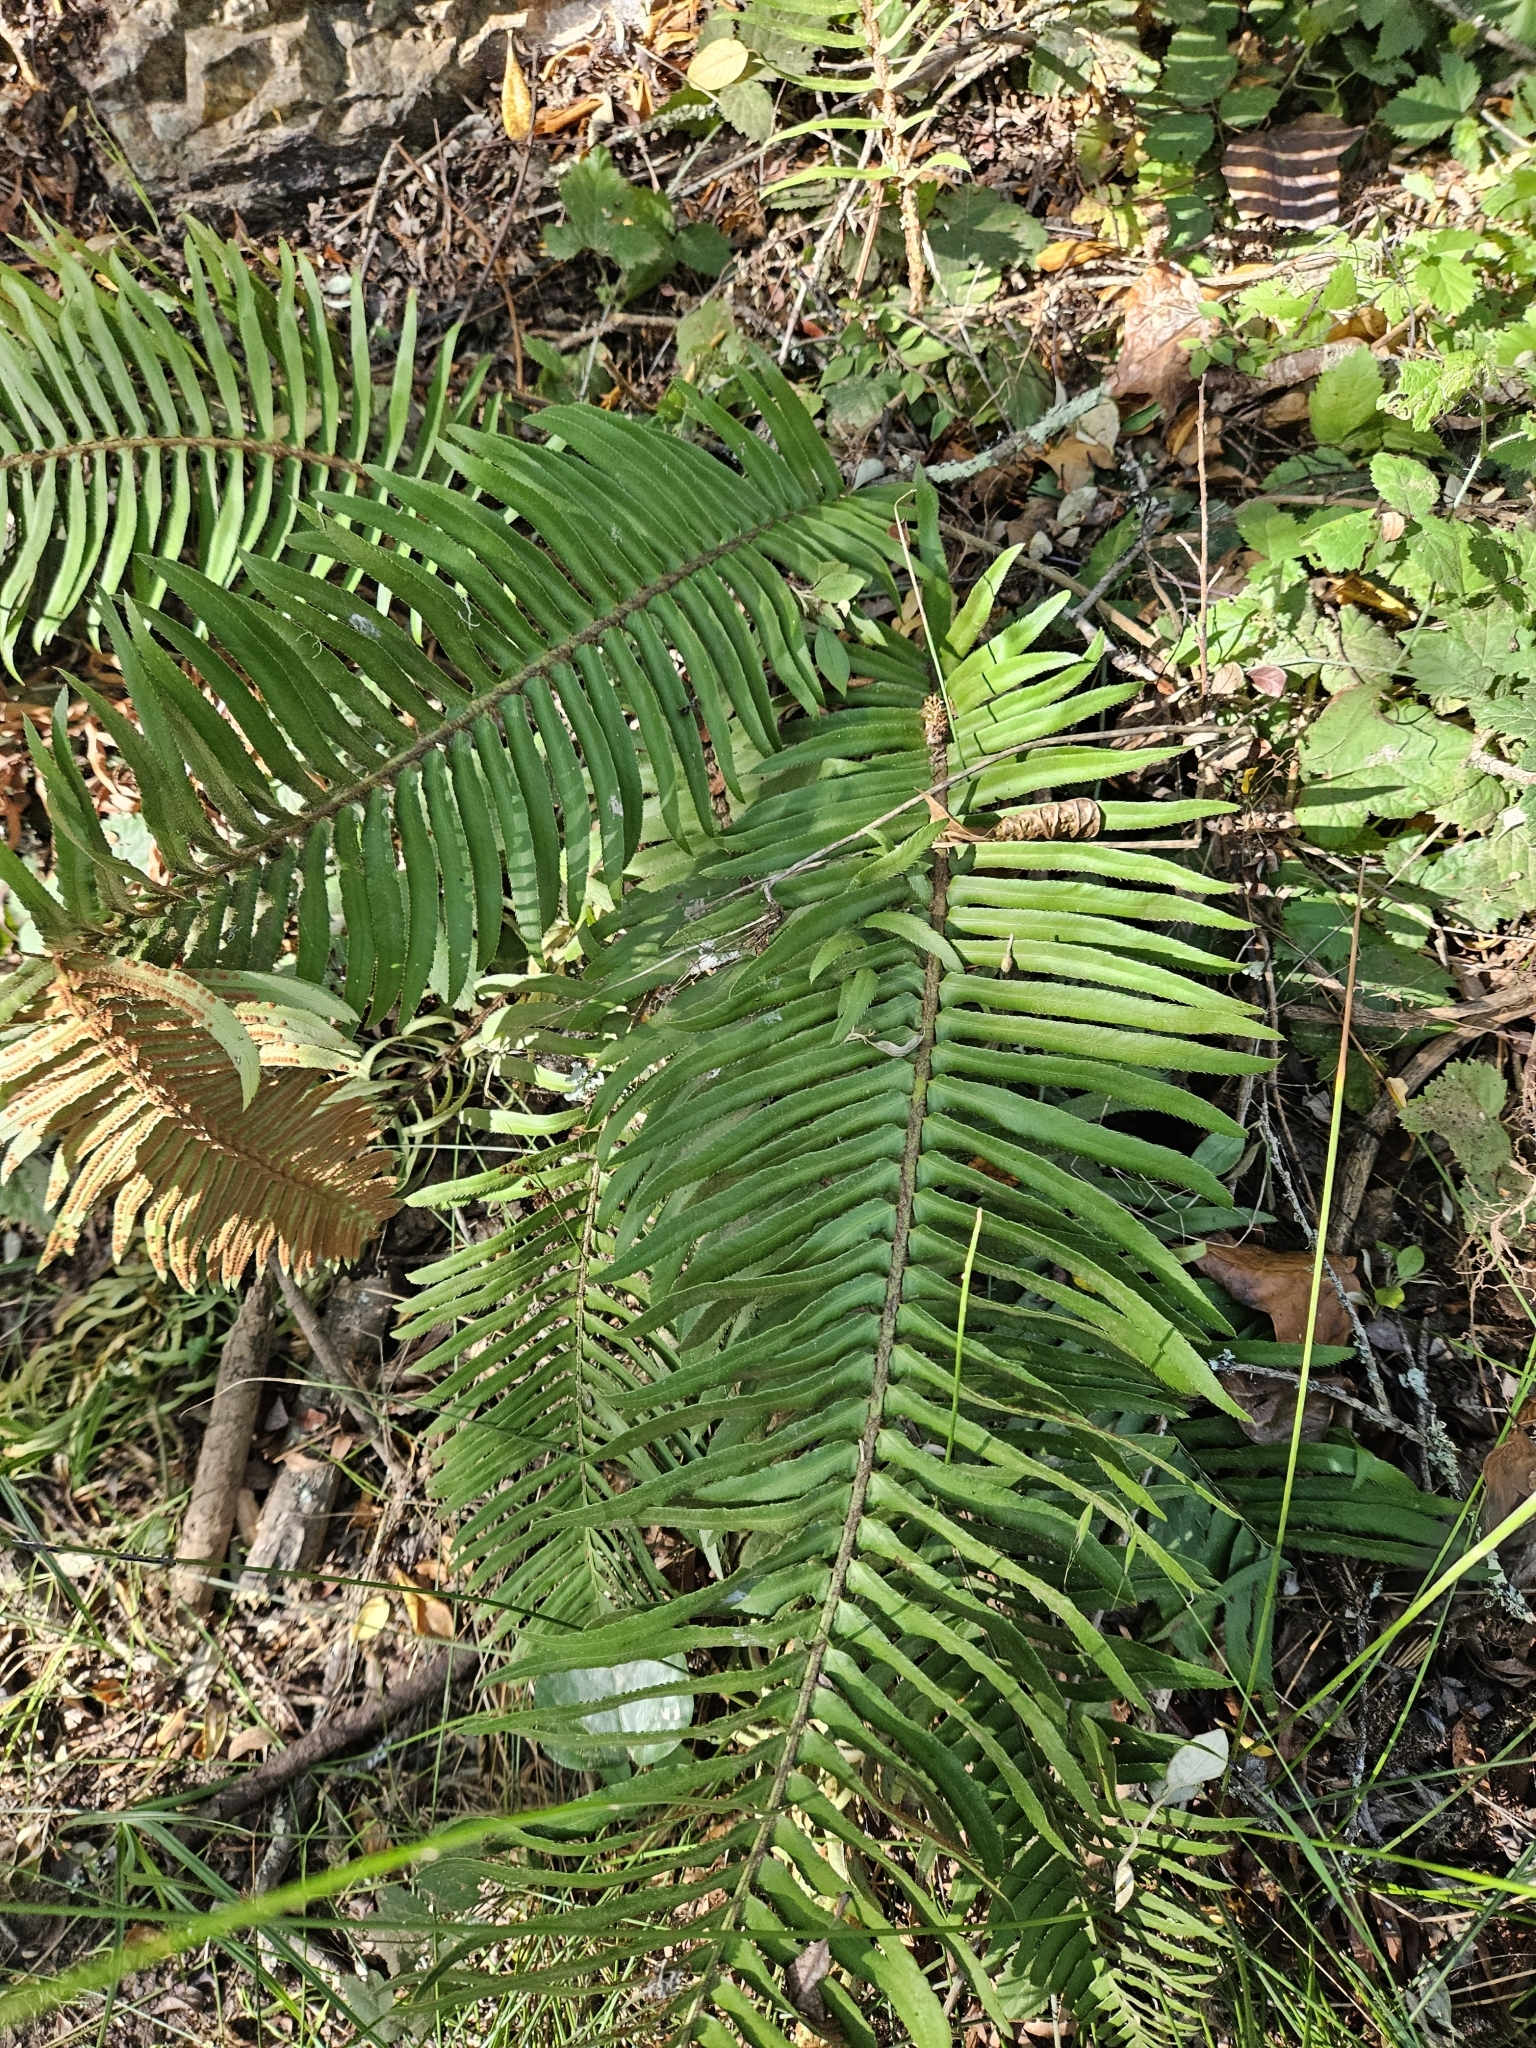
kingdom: Plantae
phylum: Tracheophyta
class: Polypodiopsida
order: Polypodiales
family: Dryopteridaceae
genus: Polystichum
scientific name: Polystichum munitum
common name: Western sword-fern
